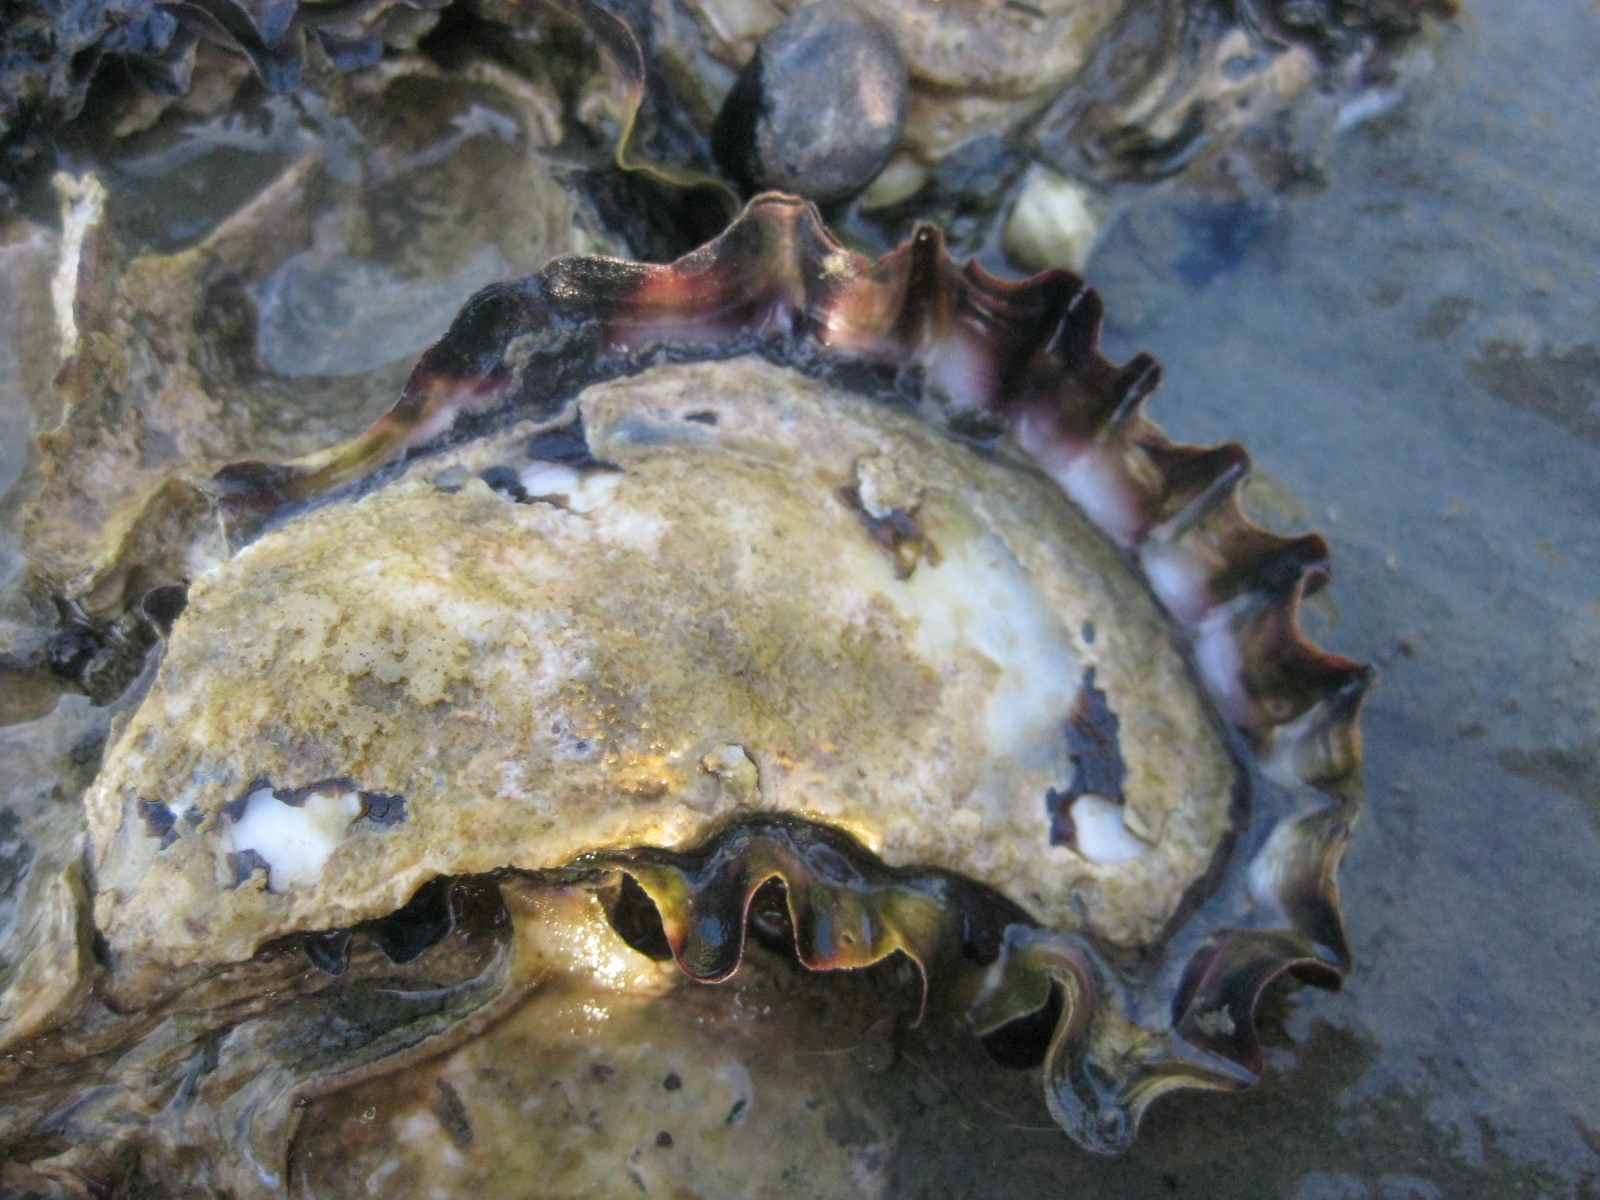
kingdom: Animalia
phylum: Mollusca
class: Bivalvia
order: Ostreida
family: Ostreidae
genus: Saccostrea
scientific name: Saccostrea glomerata
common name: Sydney cupped oyster
